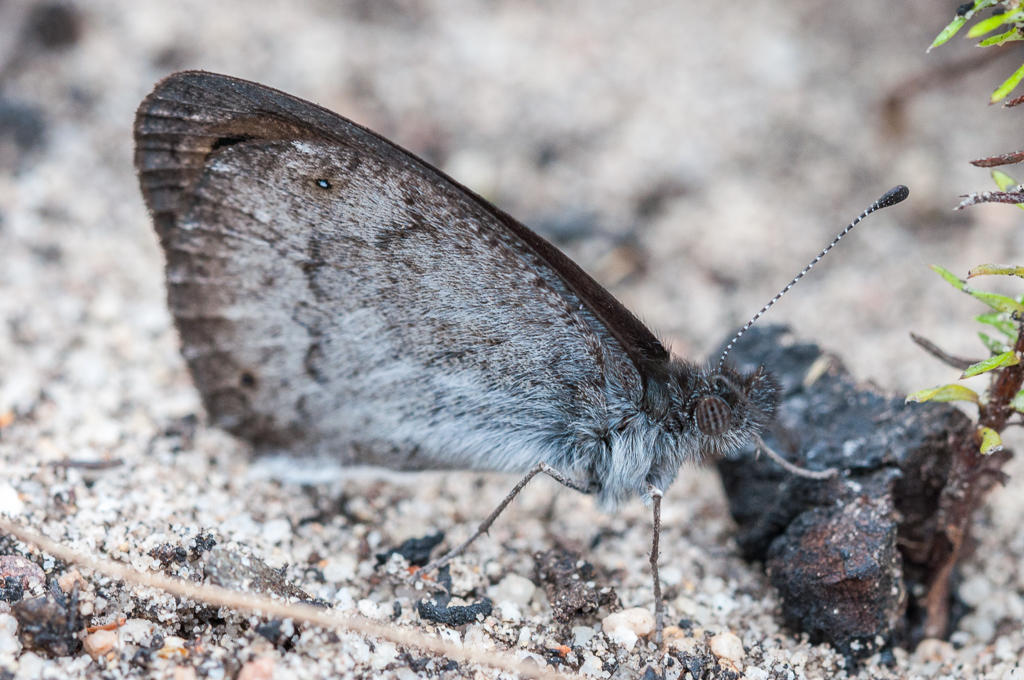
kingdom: Animalia
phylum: Arthropoda
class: Insecta
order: Lepidoptera
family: Nymphalidae
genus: Pseudonympha
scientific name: Pseudonympha hippia
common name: Table mountain brown
